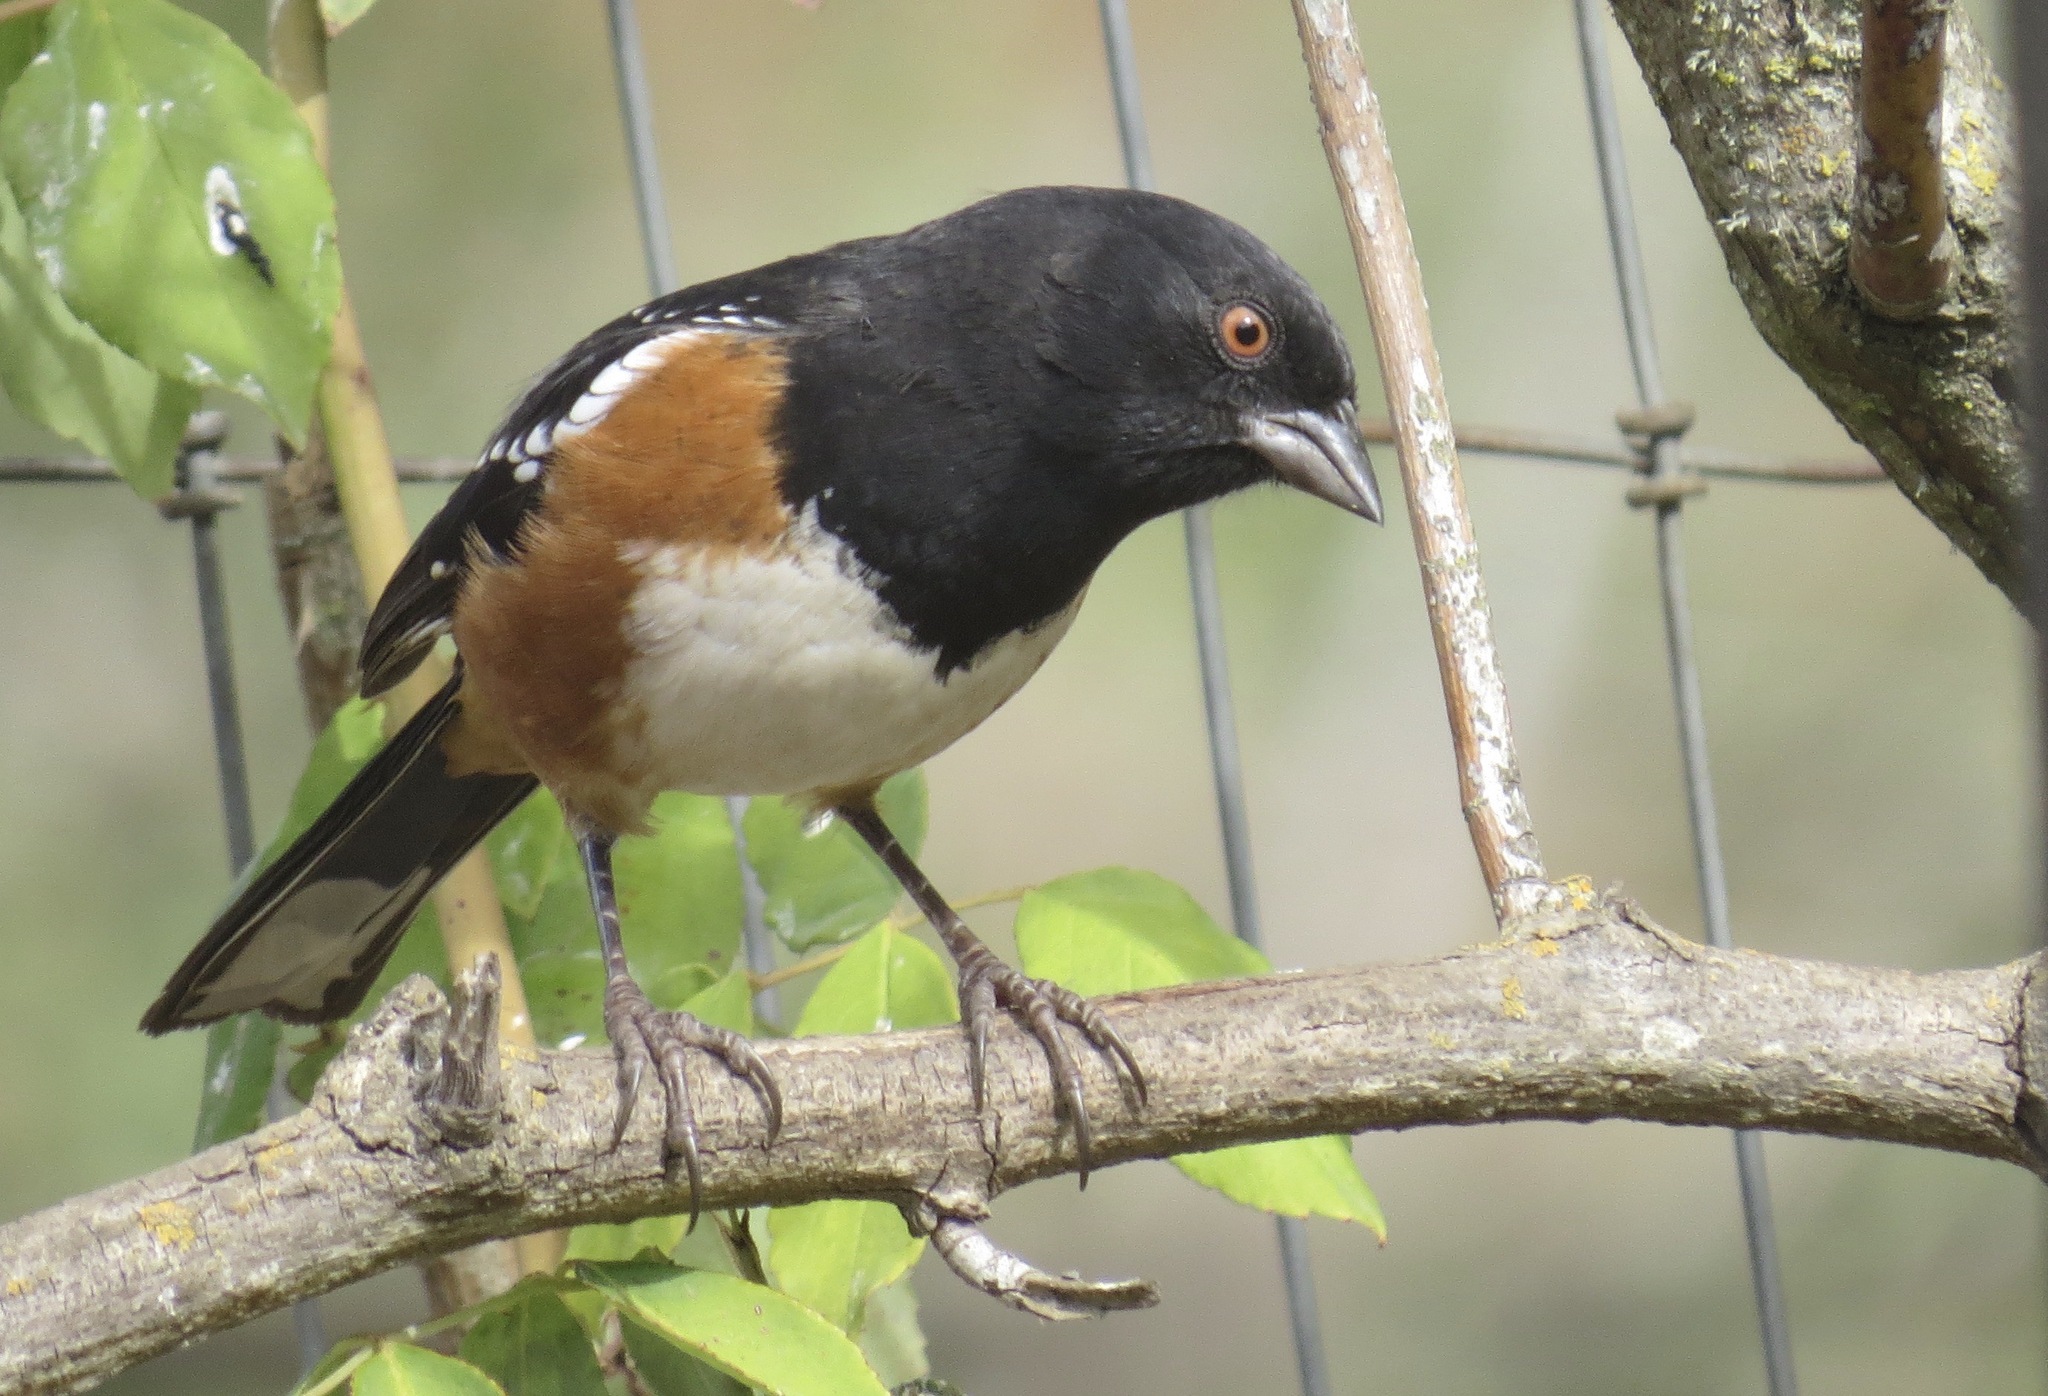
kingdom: Animalia
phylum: Chordata
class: Aves
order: Passeriformes
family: Passerellidae
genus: Pipilo
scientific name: Pipilo maculatus
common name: Spotted towhee
